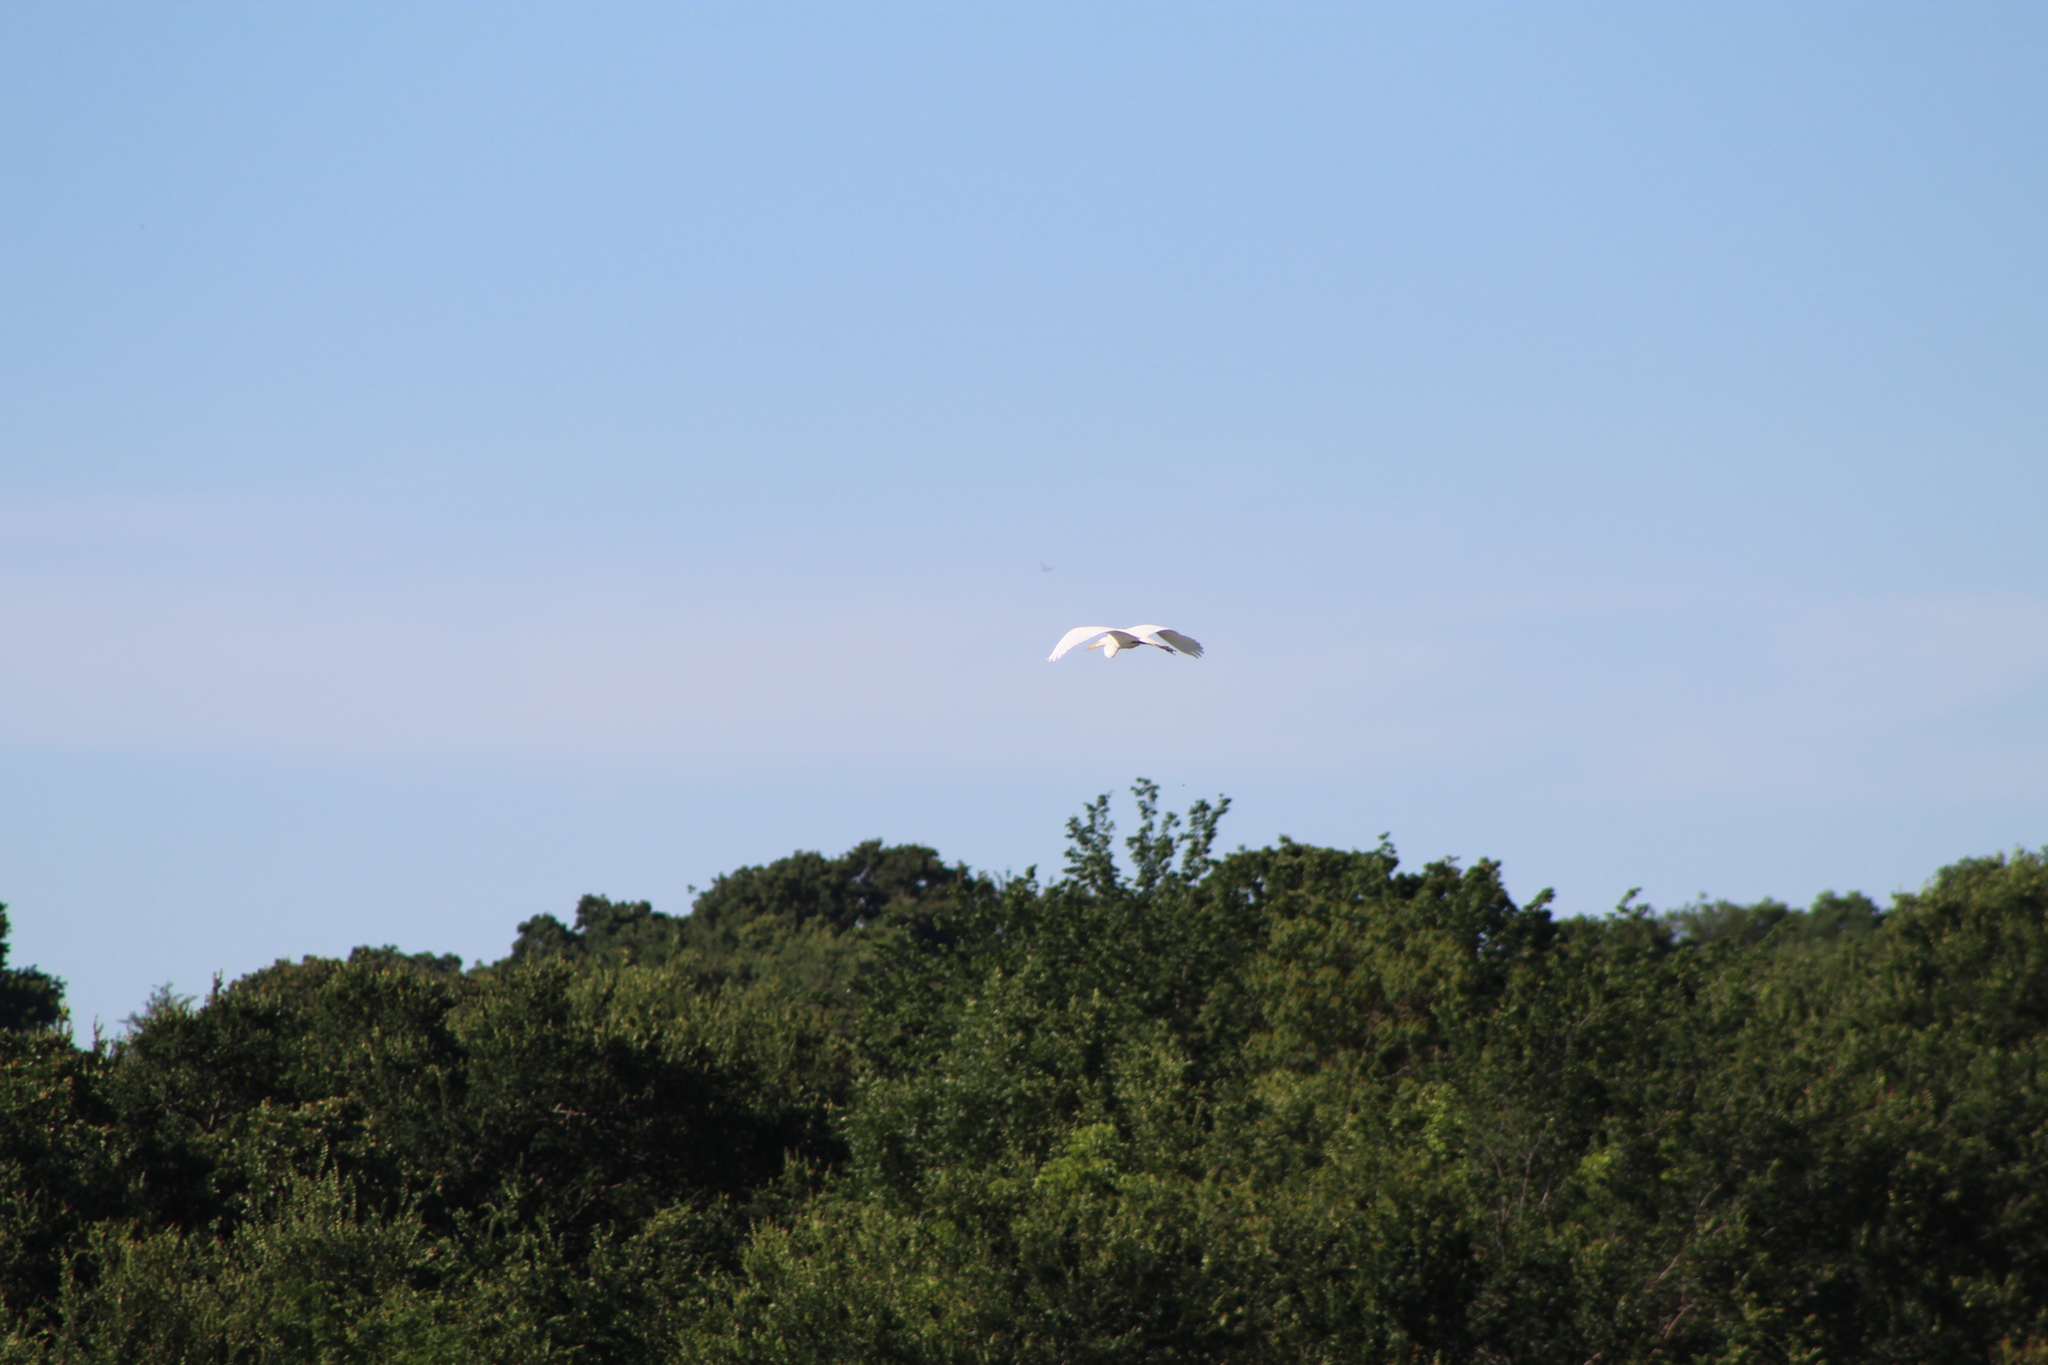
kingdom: Animalia
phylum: Chordata
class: Aves
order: Pelecaniformes
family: Ardeidae
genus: Ardea
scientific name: Ardea alba
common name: Great egret
